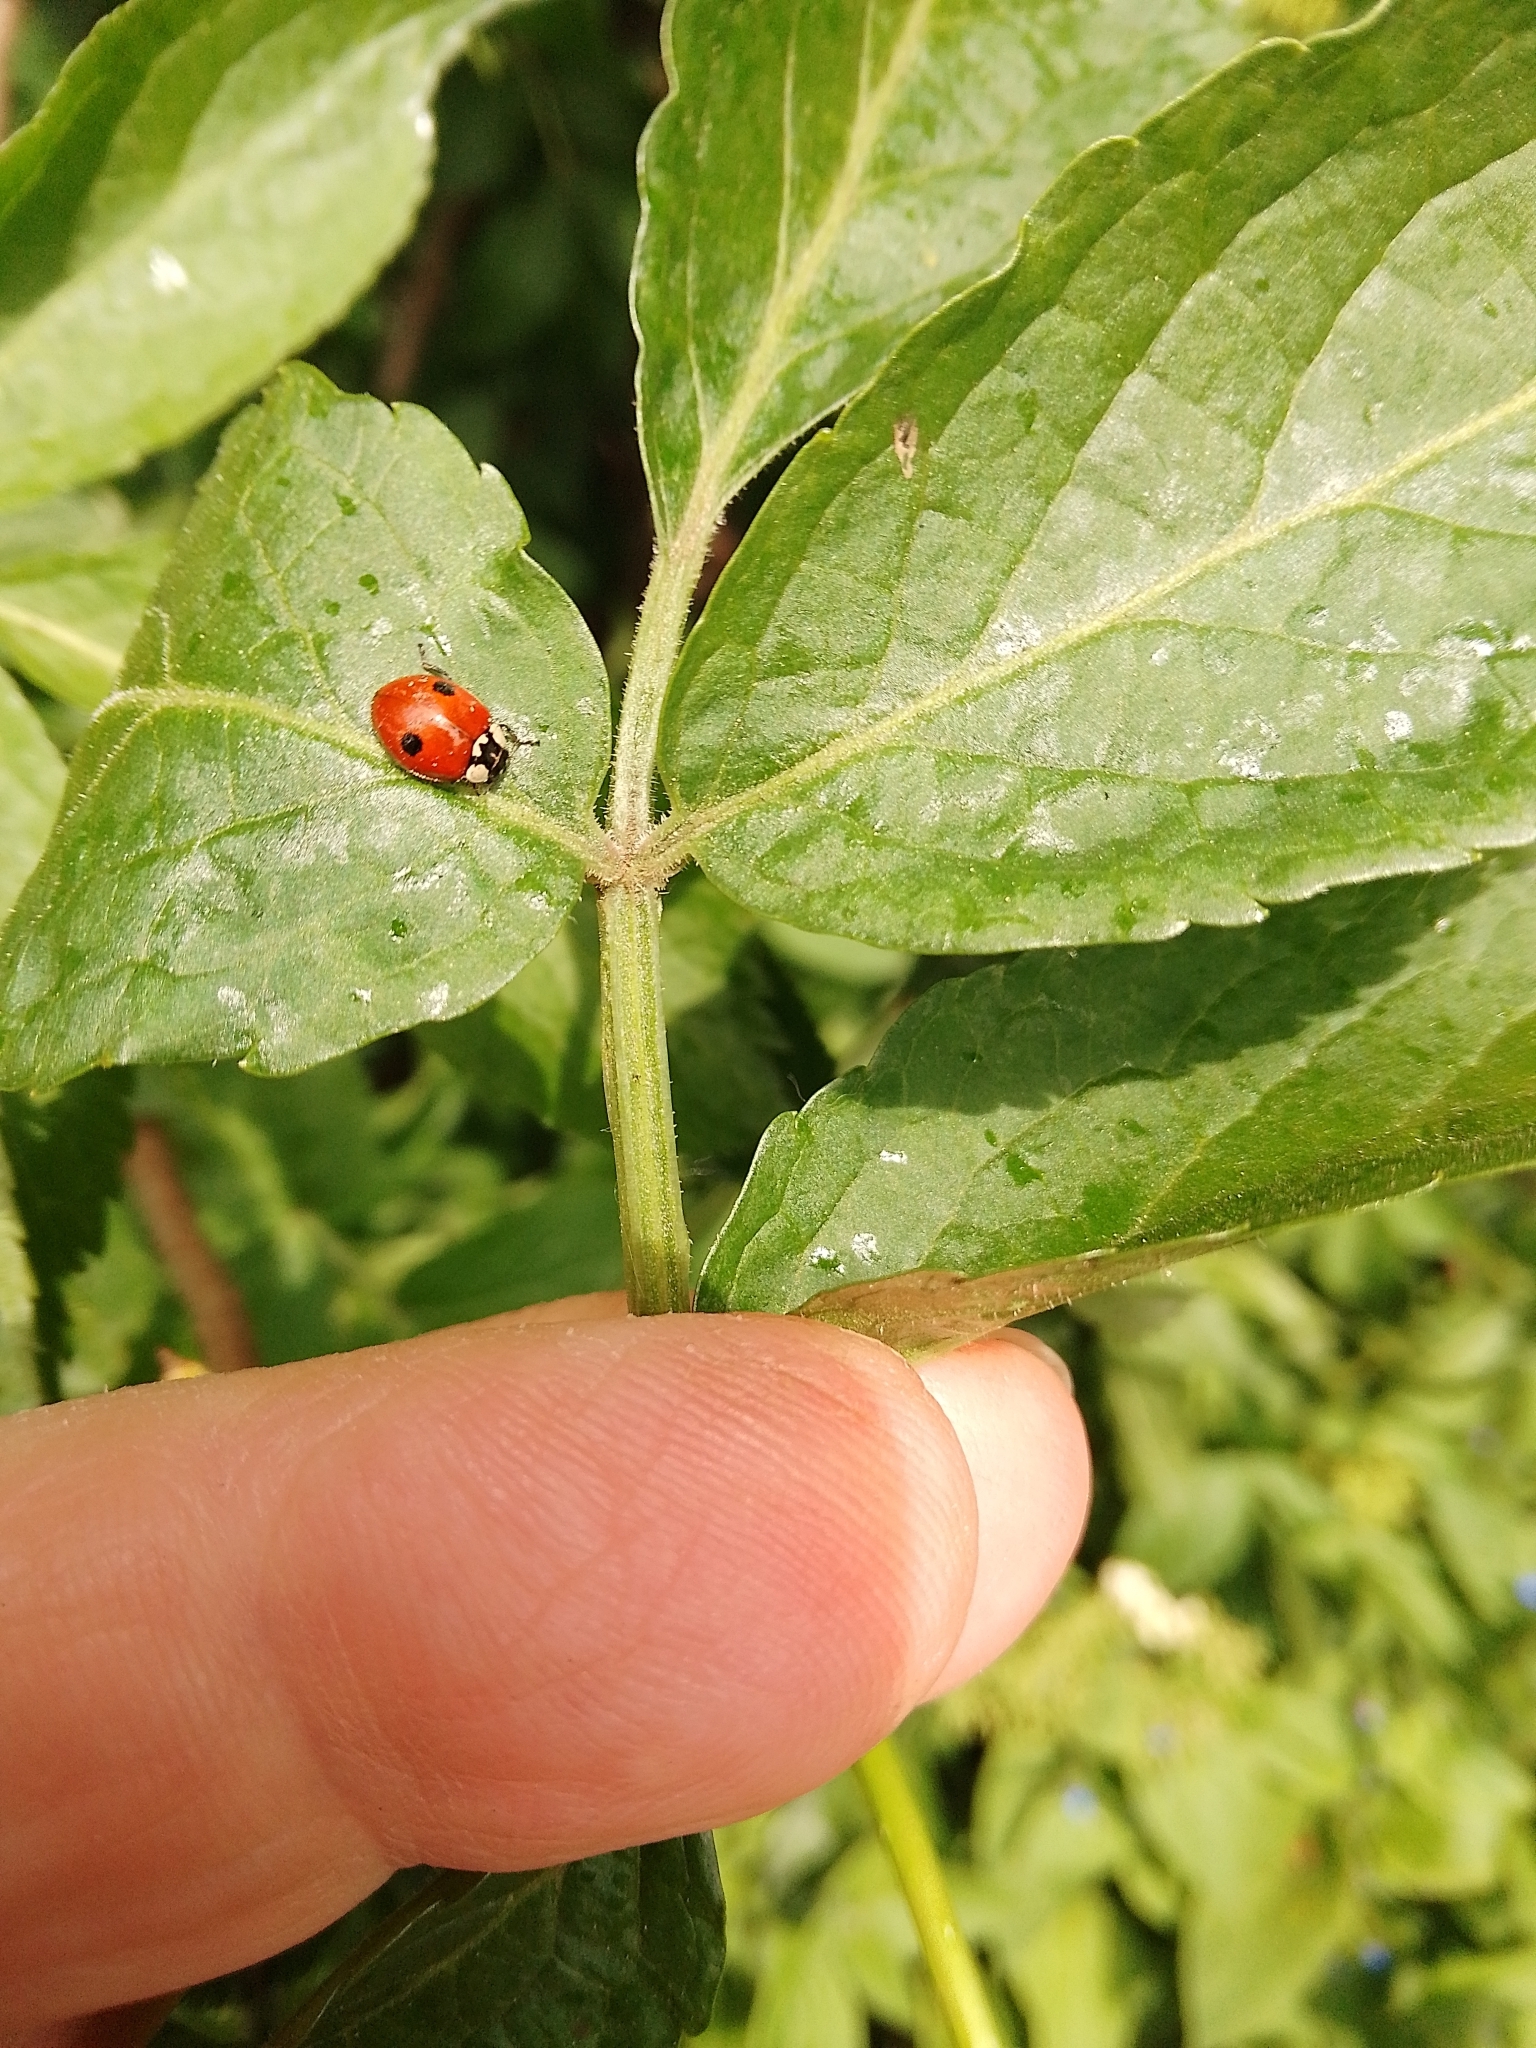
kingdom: Animalia
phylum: Arthropoda
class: Insecta
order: Coleoptera
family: Coccinellidae
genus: Adalia
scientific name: Adalia bipunctata
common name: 2-spot ladybird
